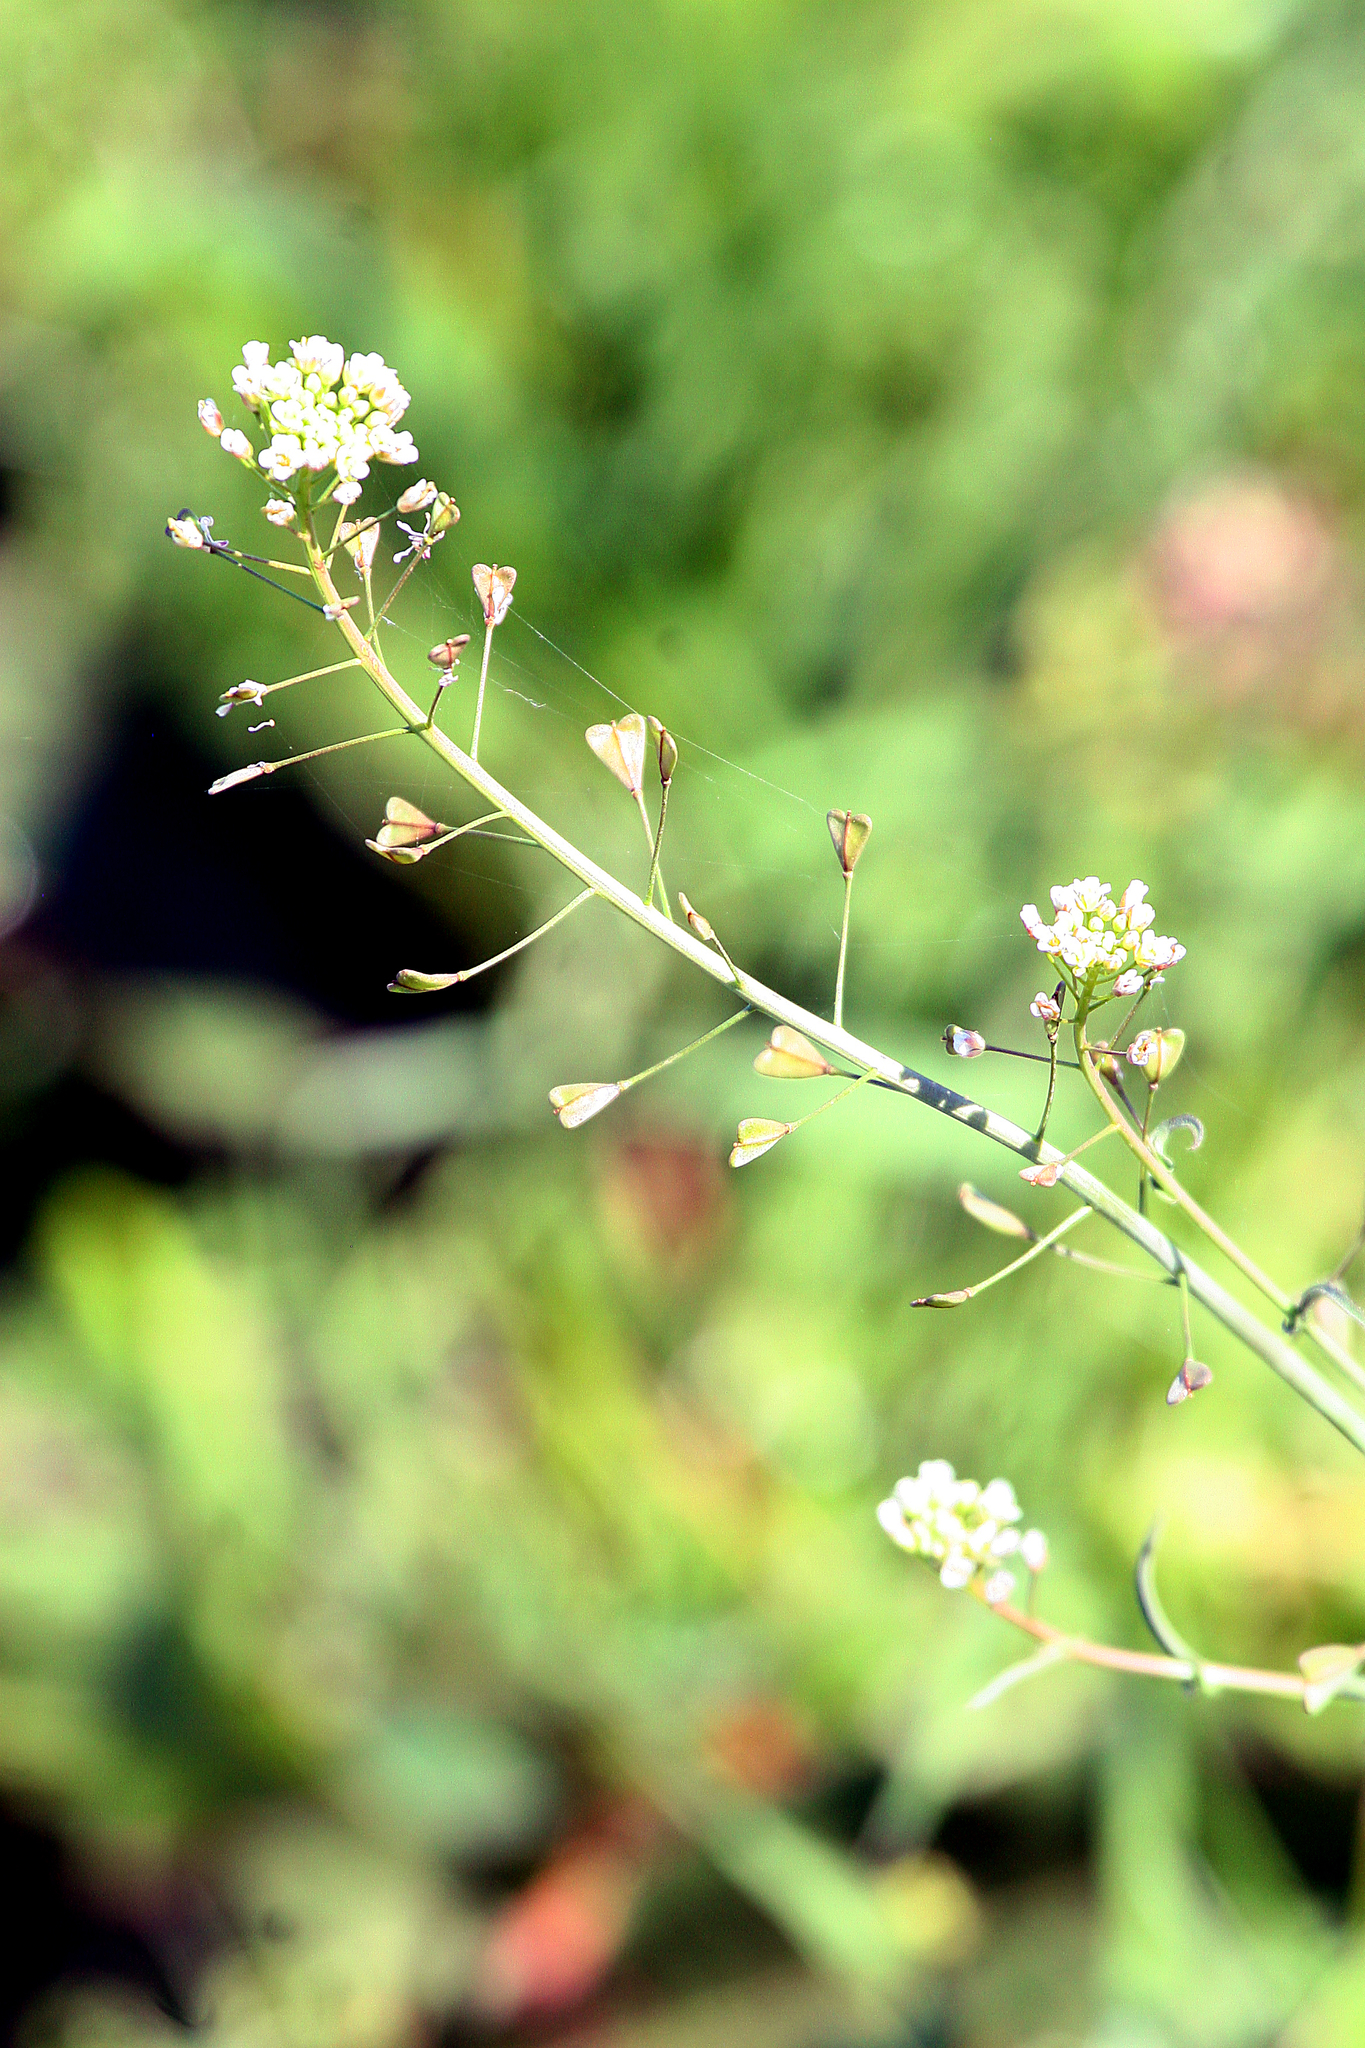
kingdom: Plantae
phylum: Tracheophyta
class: Magnoliopsida
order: Brassicales
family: Brassicaceae
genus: Capsella
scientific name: Capsella bursa-pastoris
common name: Shepherd's purse
